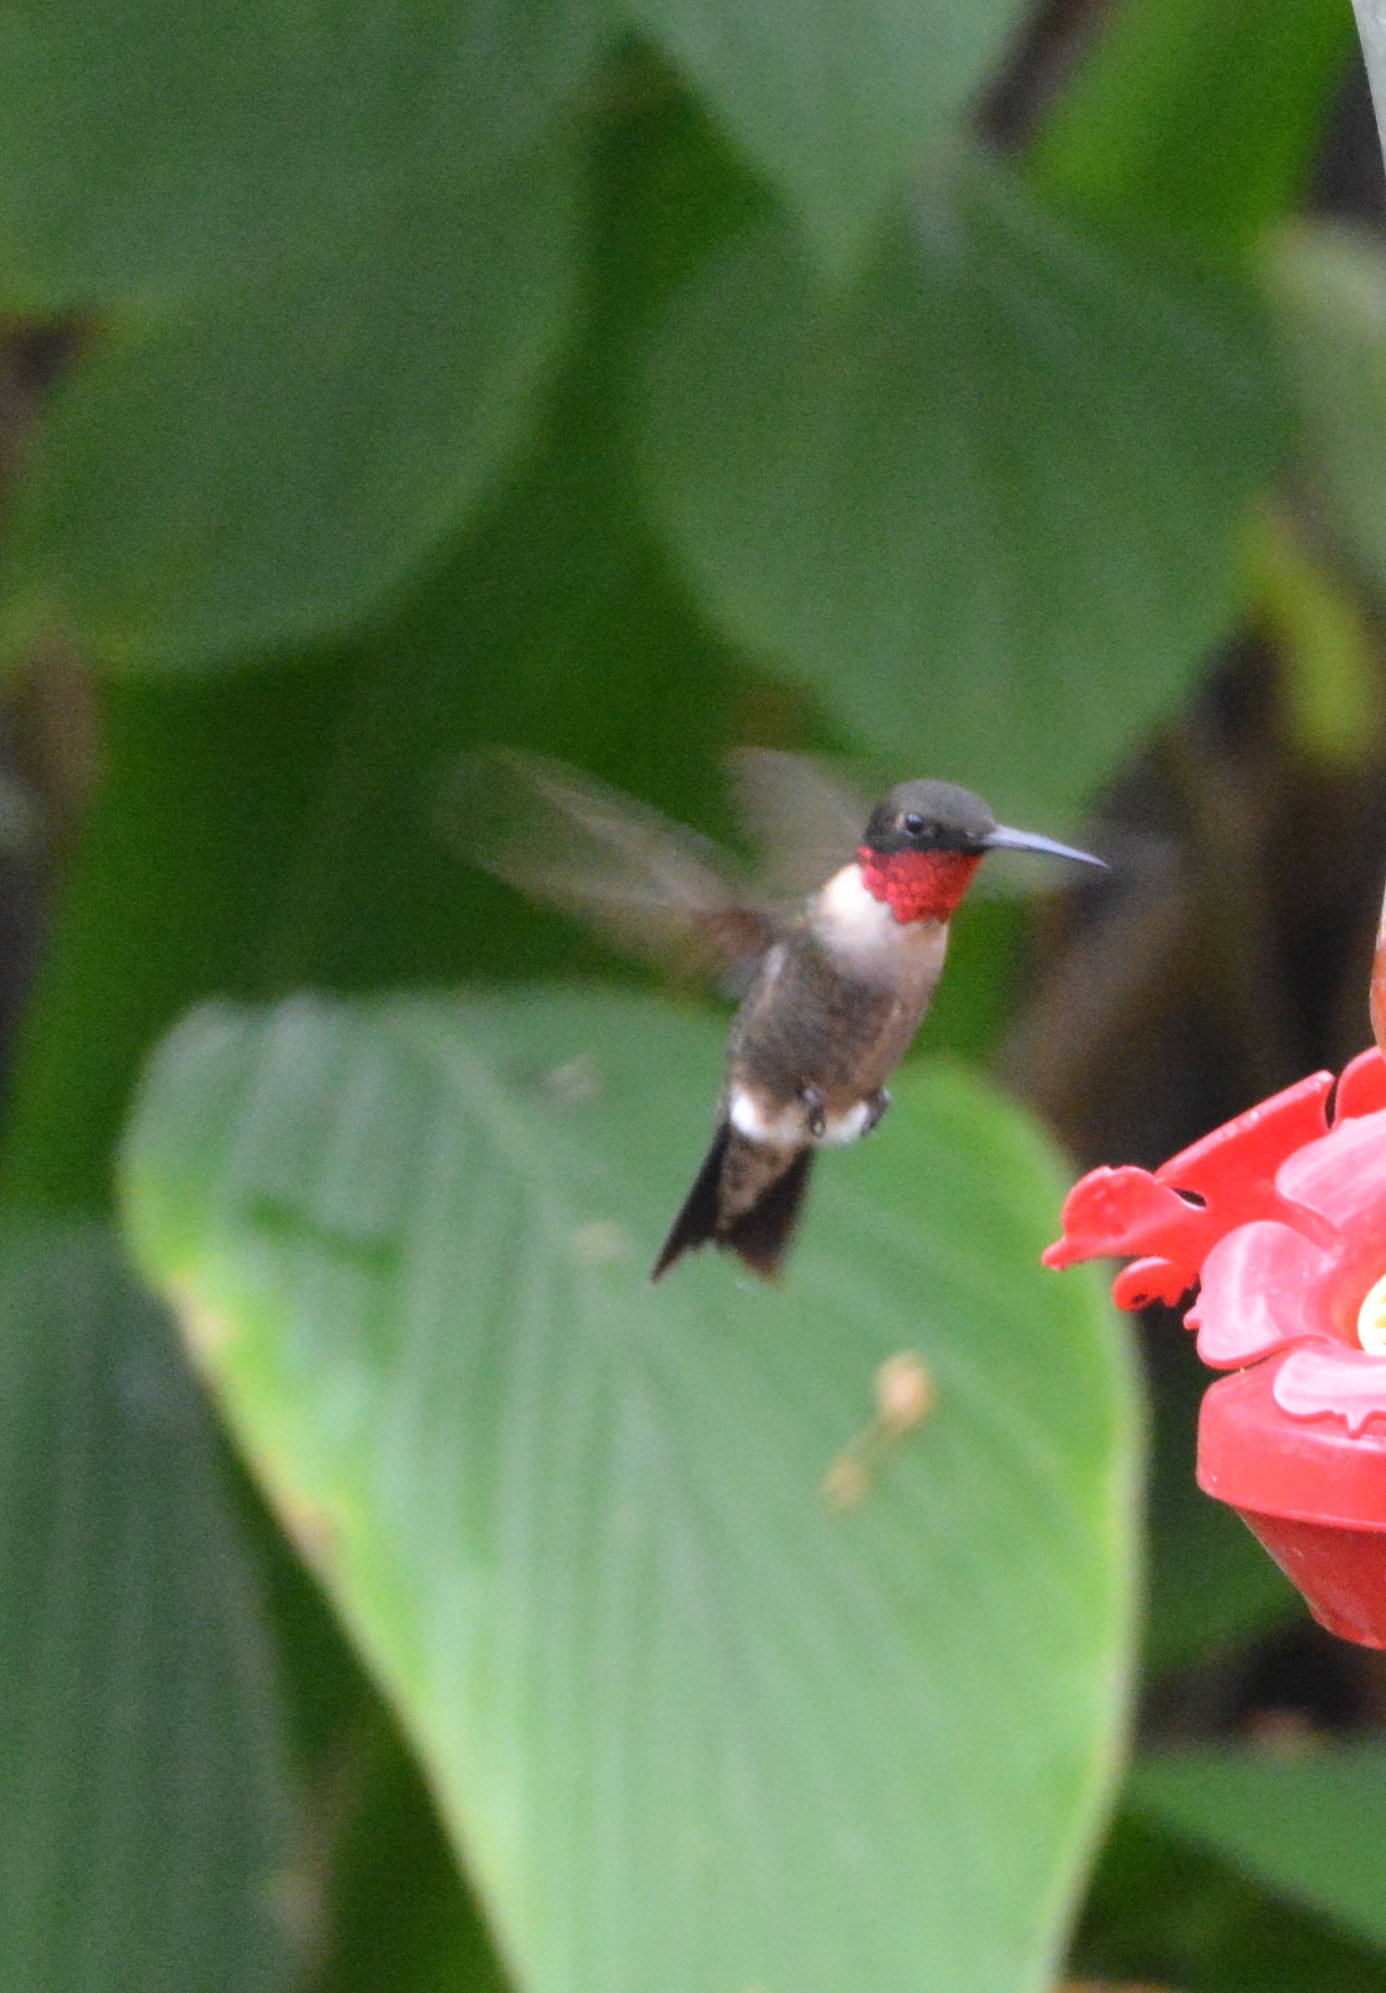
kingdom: Animalia
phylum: Chordata
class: Aves
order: Apodiformes
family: Trochilidae
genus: Archilochus
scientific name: Archilochus colubris
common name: Ruby-throated hummingbird
